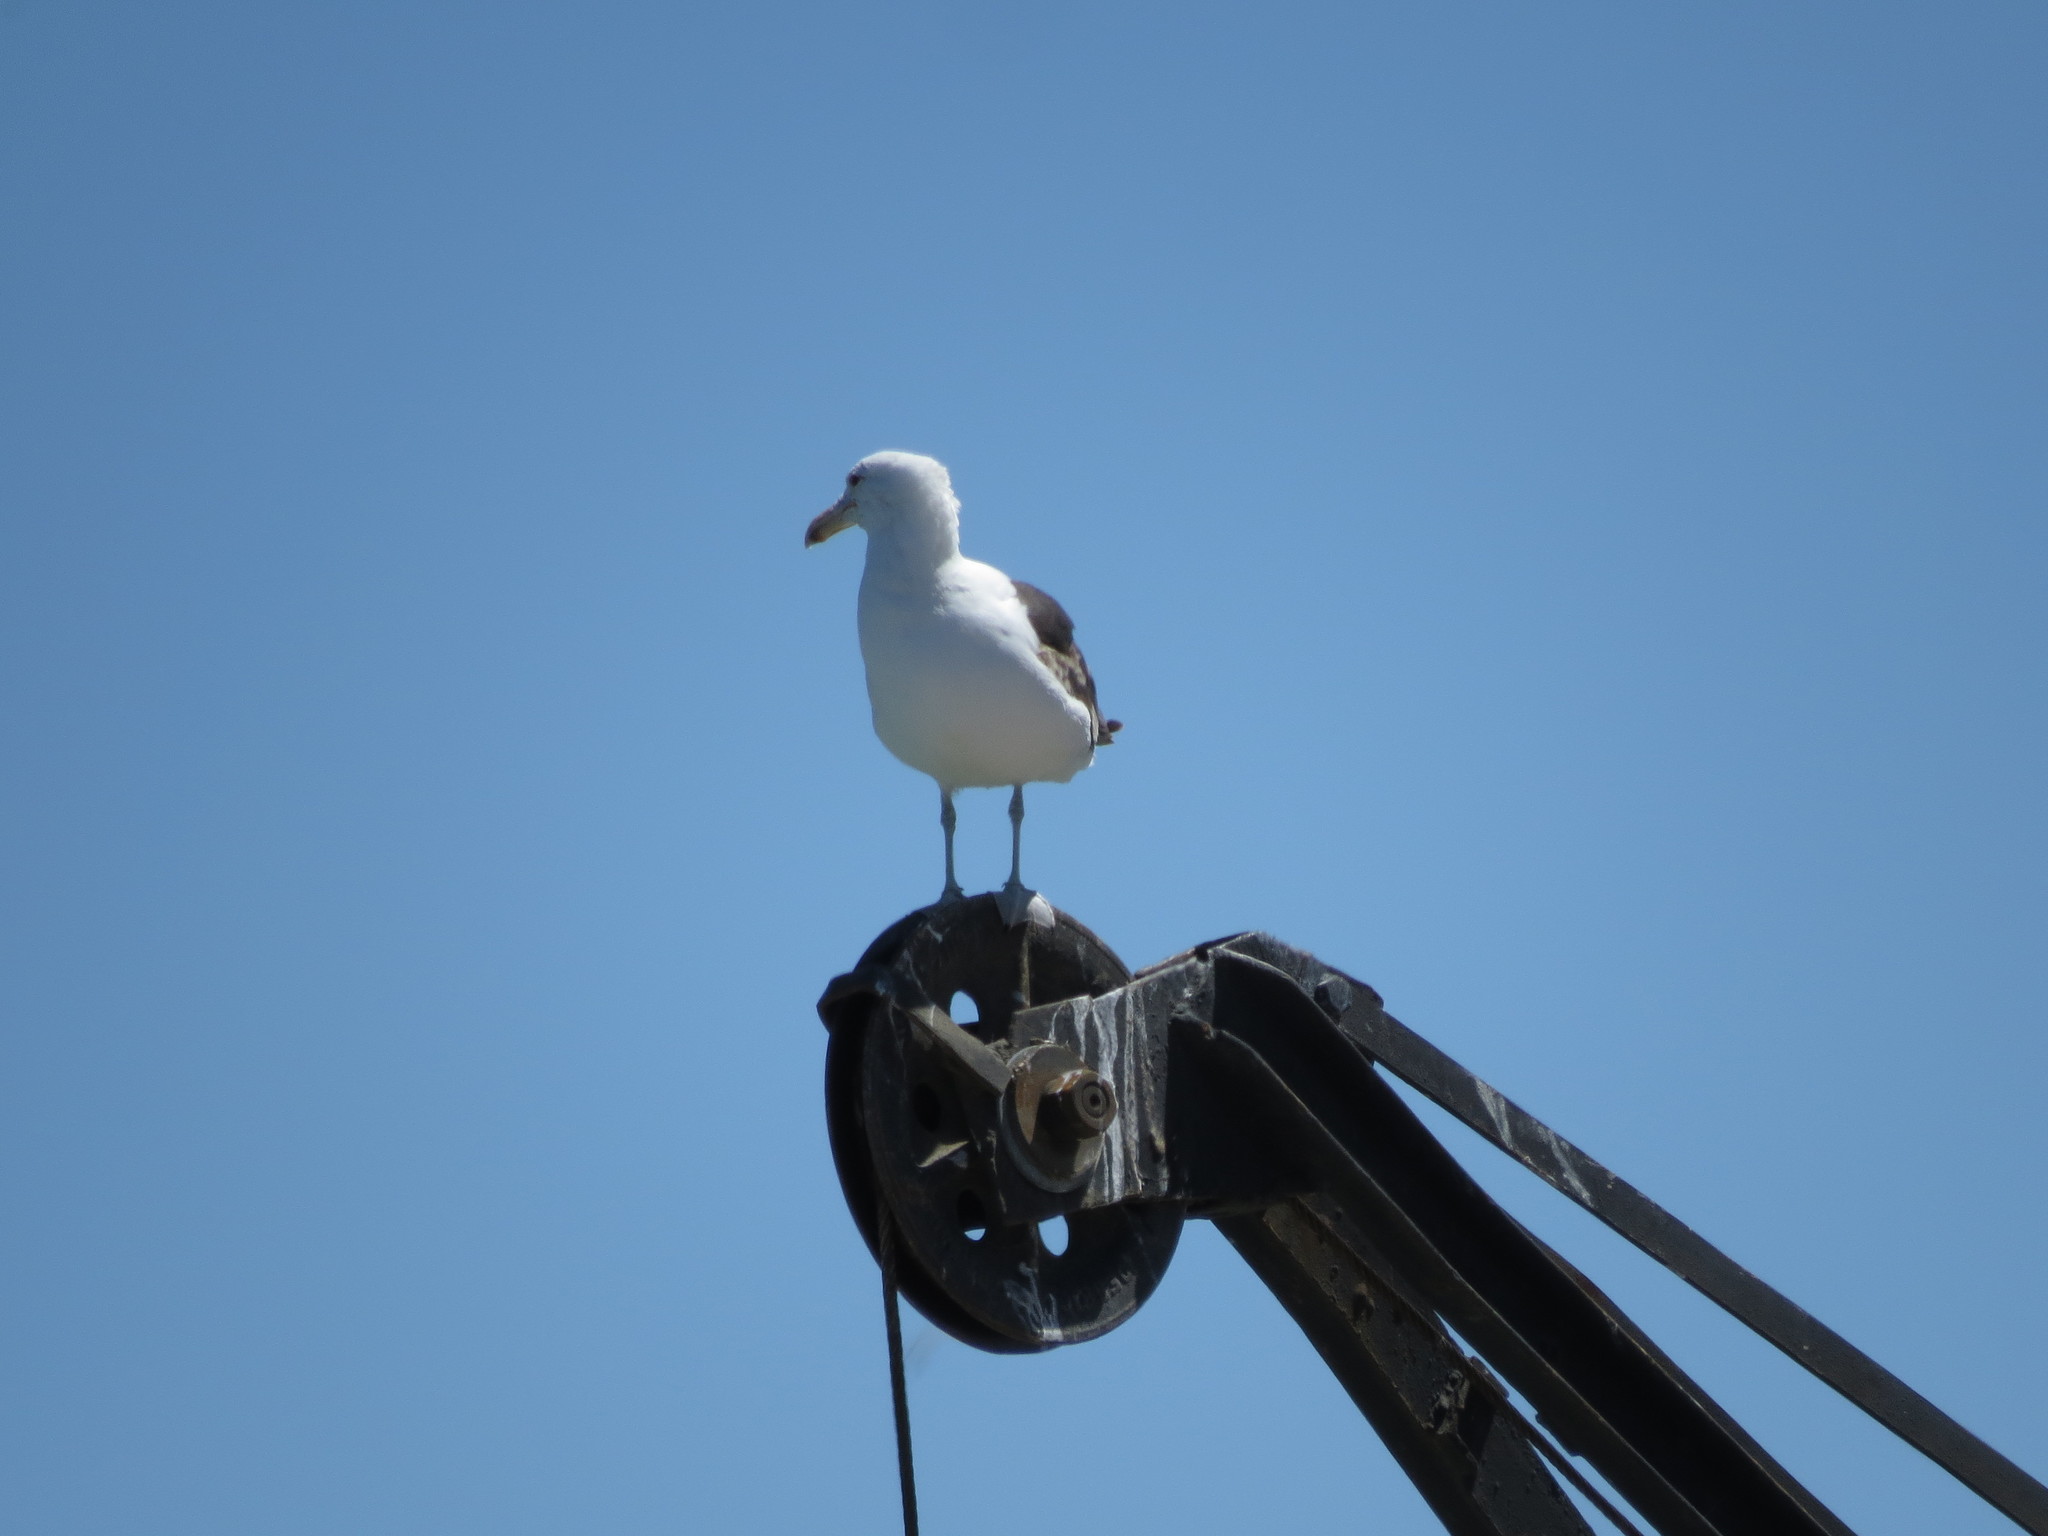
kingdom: Animalia
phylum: Chordata
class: Aves
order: Charadriiformes
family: Laridae
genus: Larus
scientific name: Larus dominicanus
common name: Kelp gull
